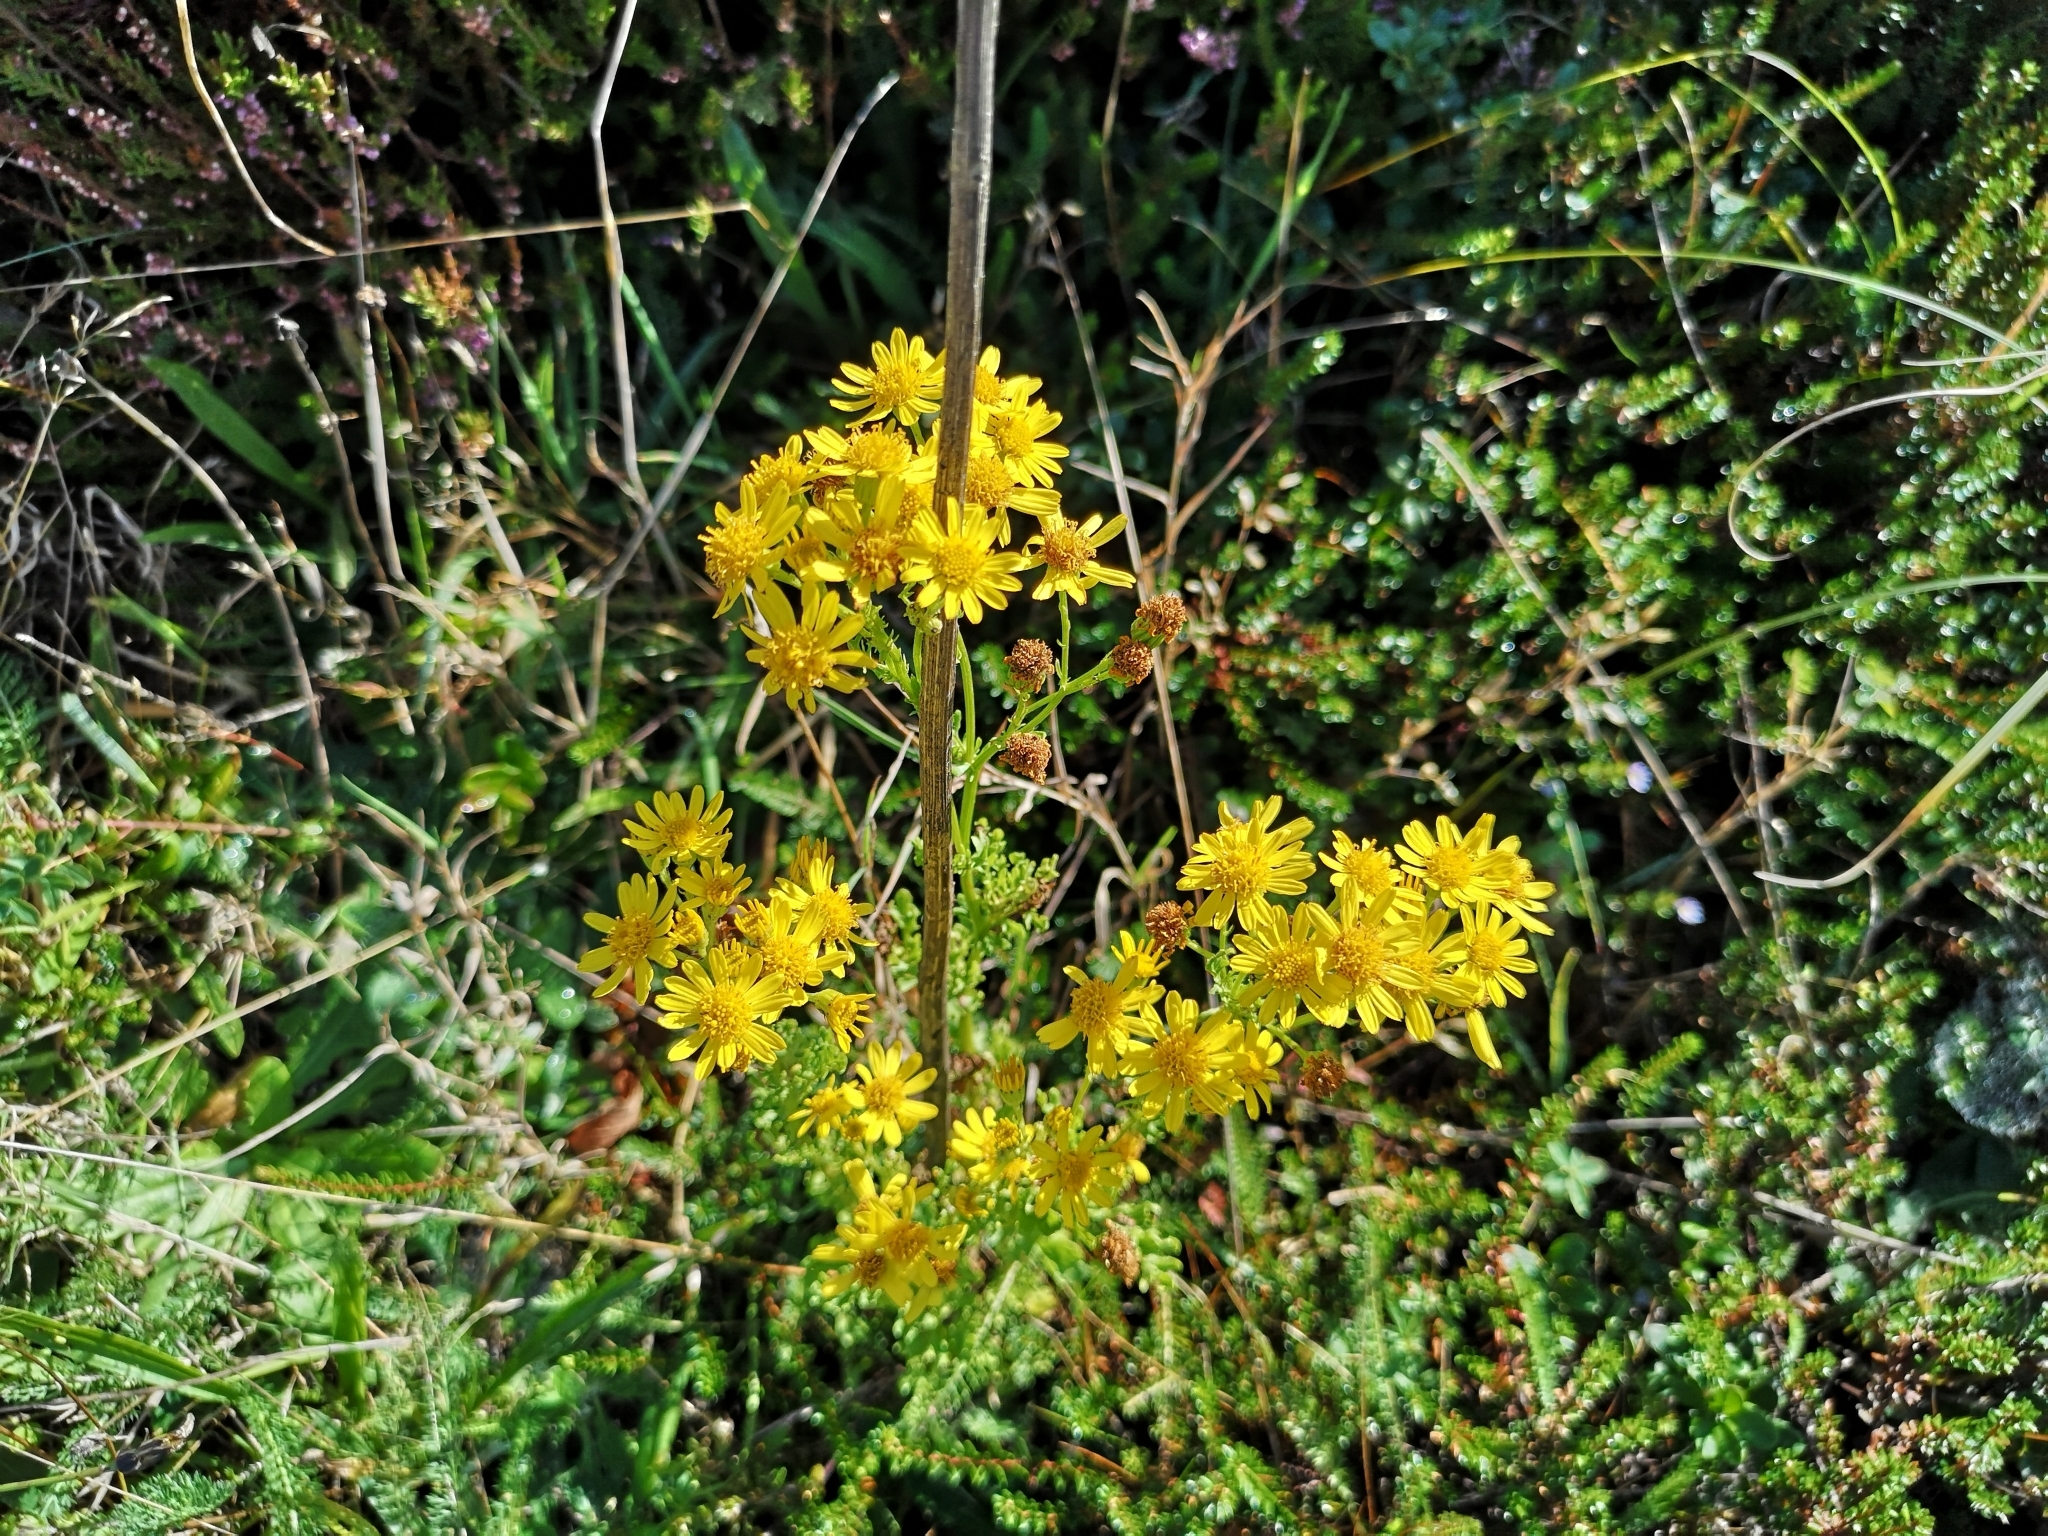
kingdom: Plantae
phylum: Tracheophyta
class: Magnoliopsida
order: Asterales
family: Asteraceae
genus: Jacobaea
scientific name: Jacobaea vulgaris
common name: Stinking willie
